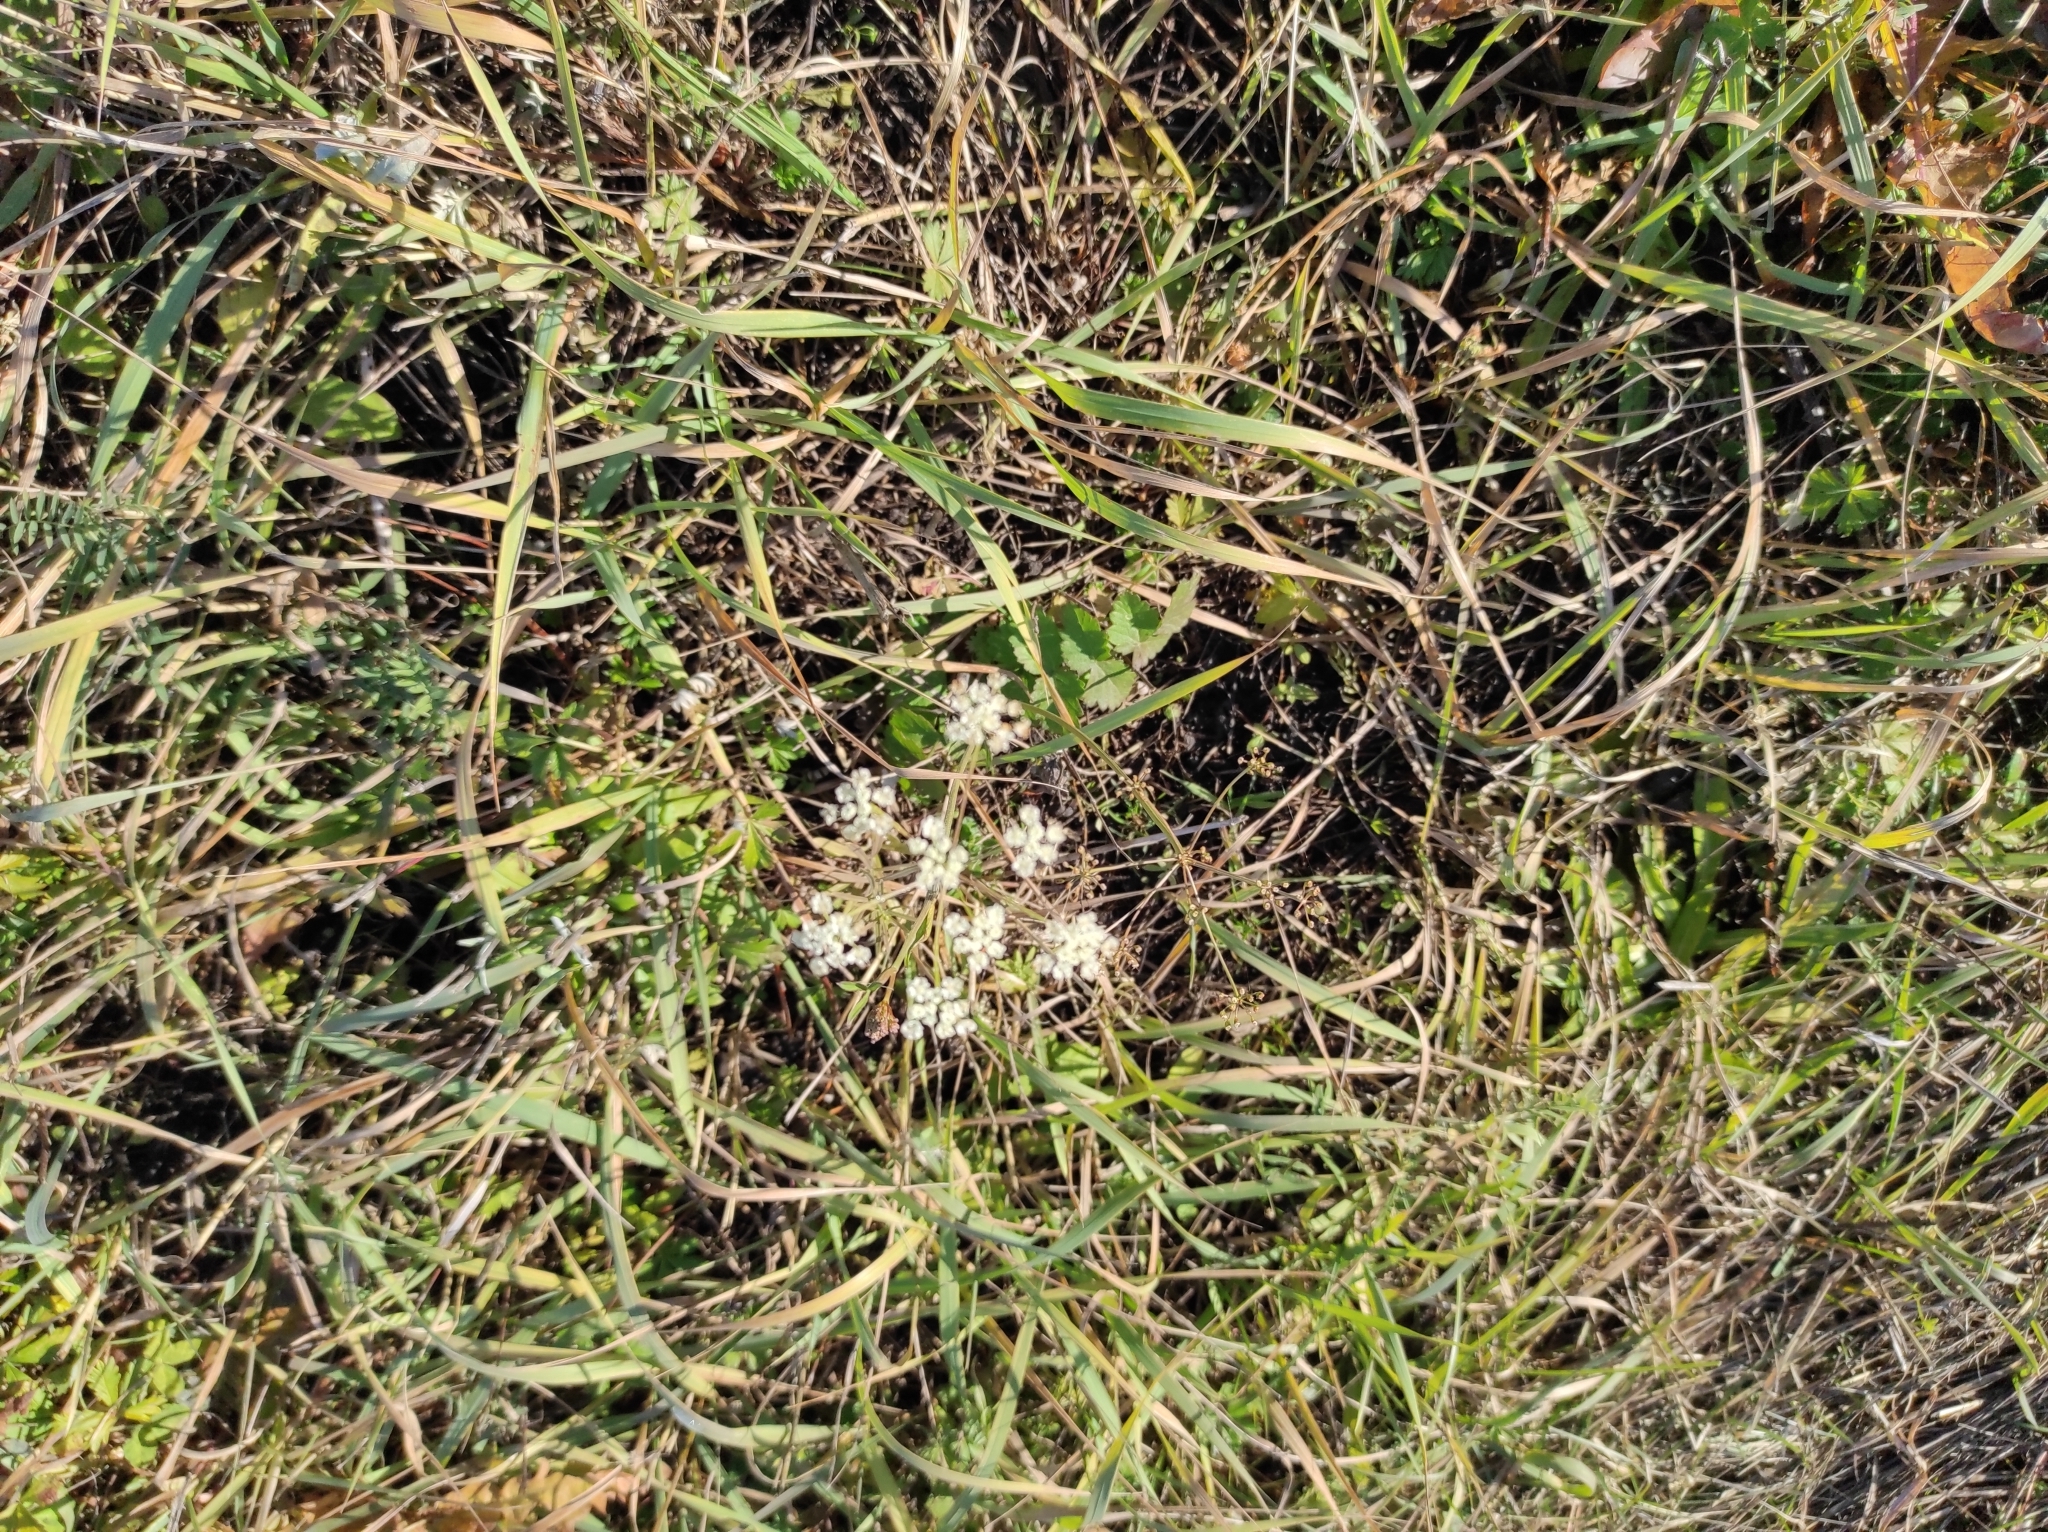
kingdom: Plantae
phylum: Tracheophyta
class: Magnoliopsida
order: Apiales
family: Apiaceae
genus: Pimpinella
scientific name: Pimpinella saxifraga
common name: Burnet-saxifrage
